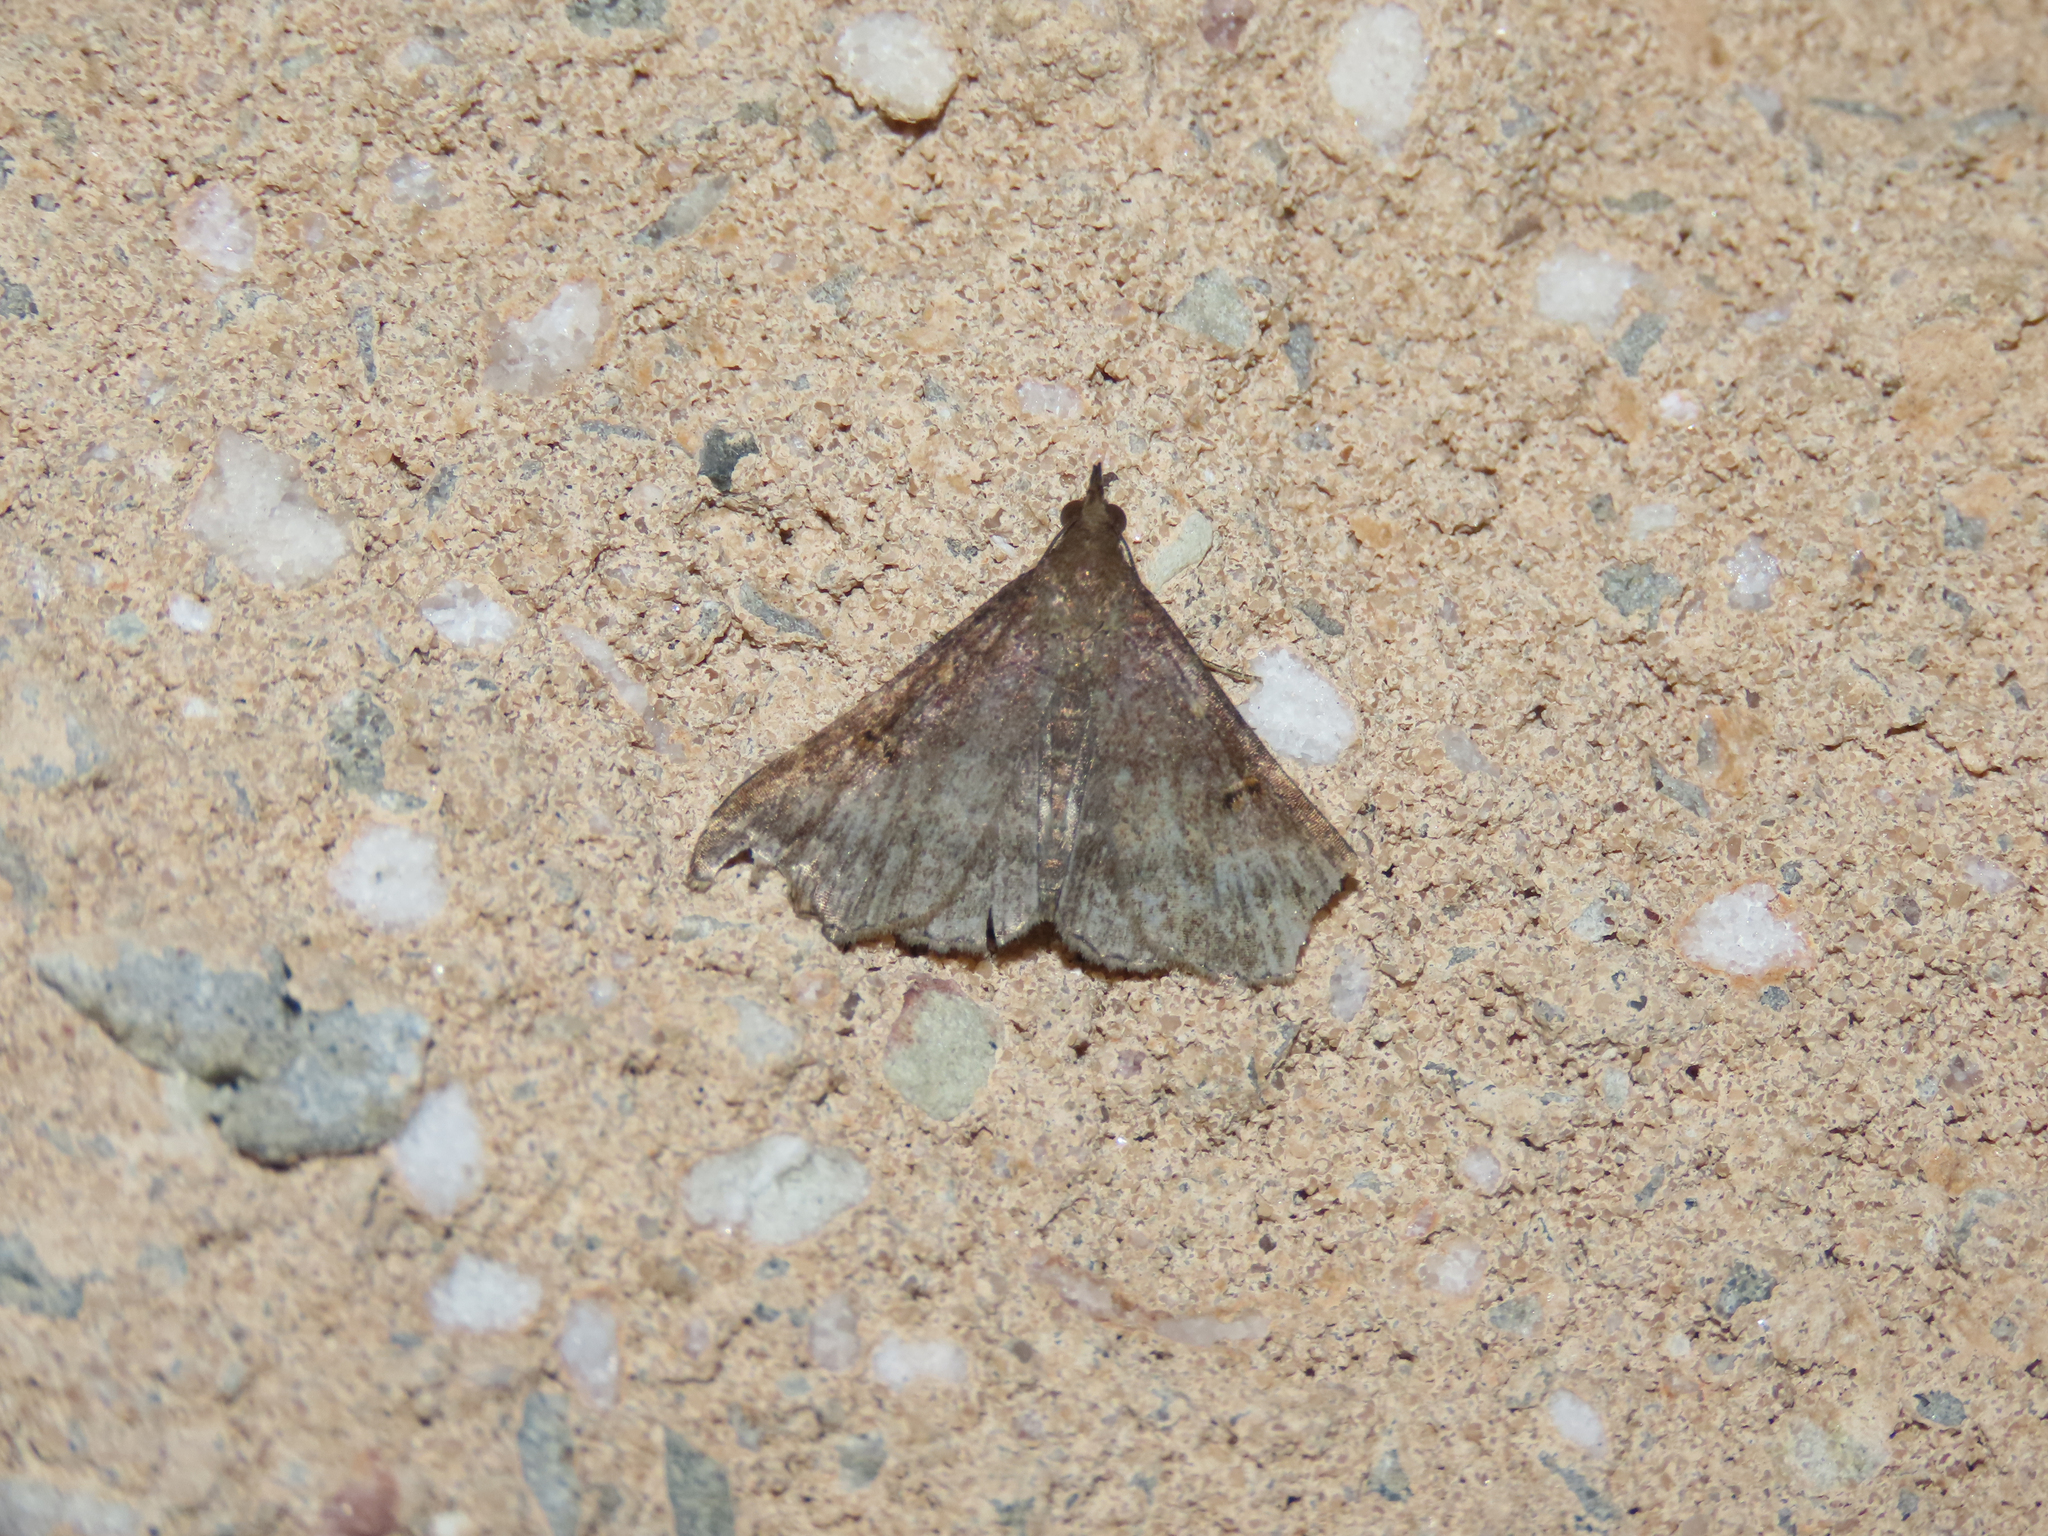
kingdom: Animalia
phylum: Arthropoda
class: Insecta
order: Lepidoptera
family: Erebidae
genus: Renia
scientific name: Renia factiosalis
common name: Sociable renia moth
